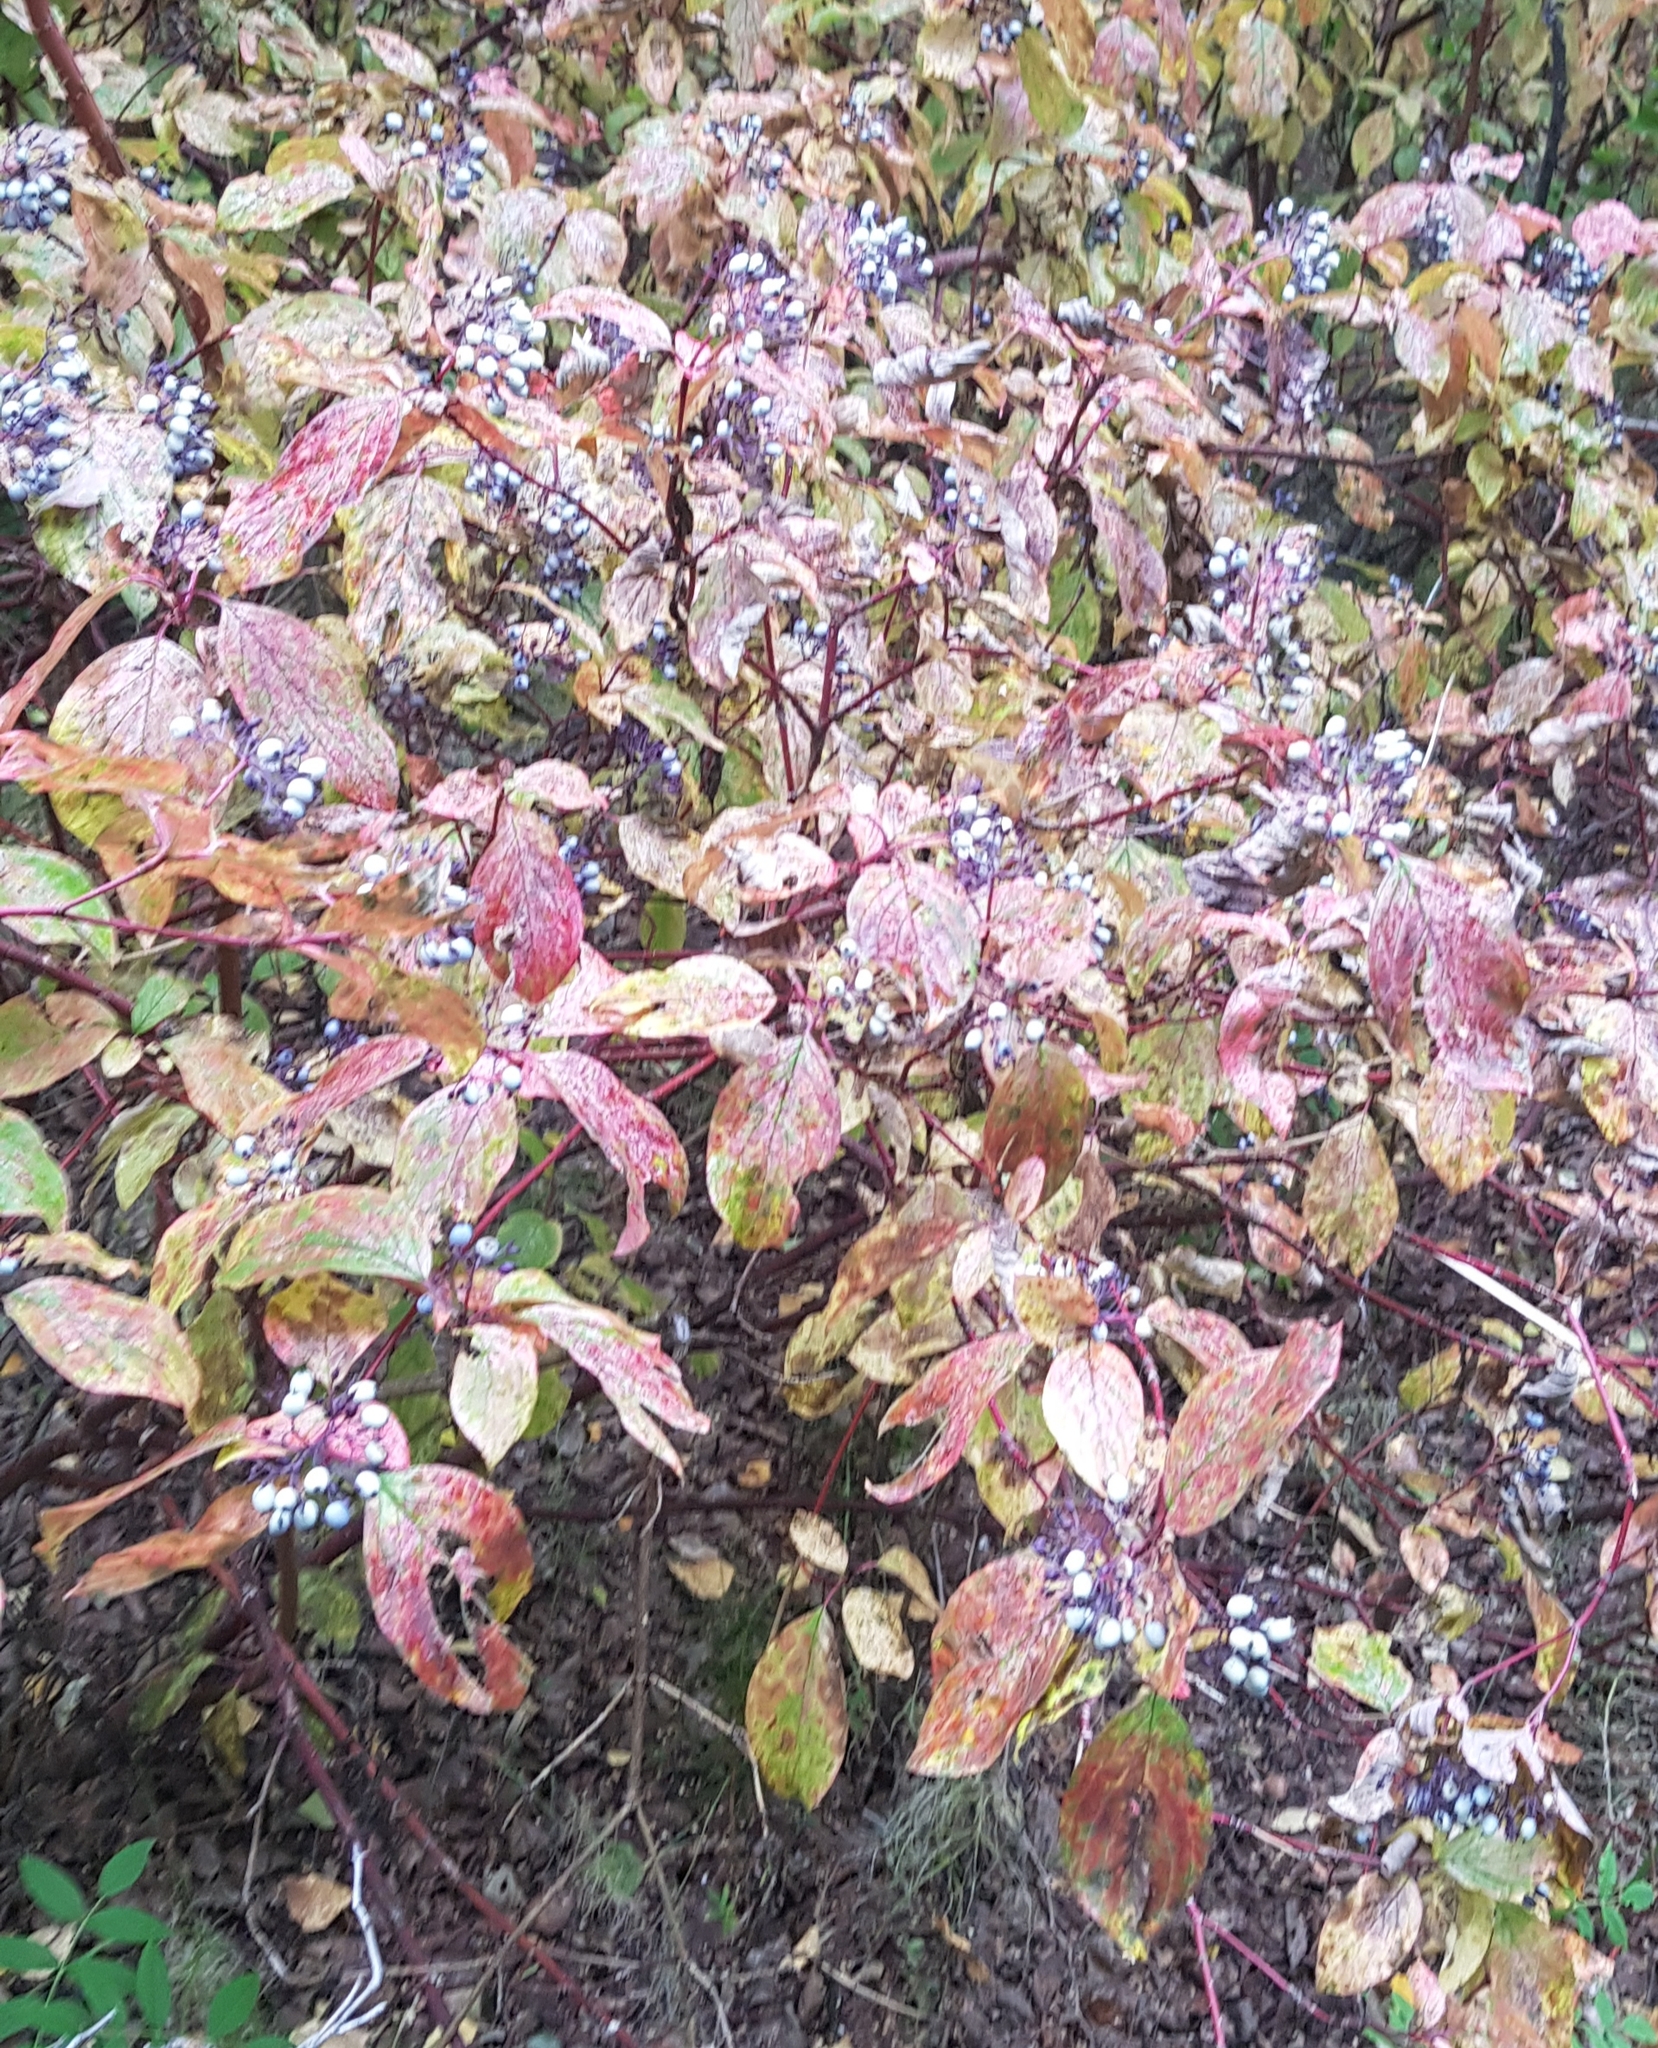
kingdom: Plantae
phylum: Tracheophyta
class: Magnoliopsida
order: Cornales
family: Cornaceae
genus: Cornus
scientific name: Cornus alba
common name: White dogwood
